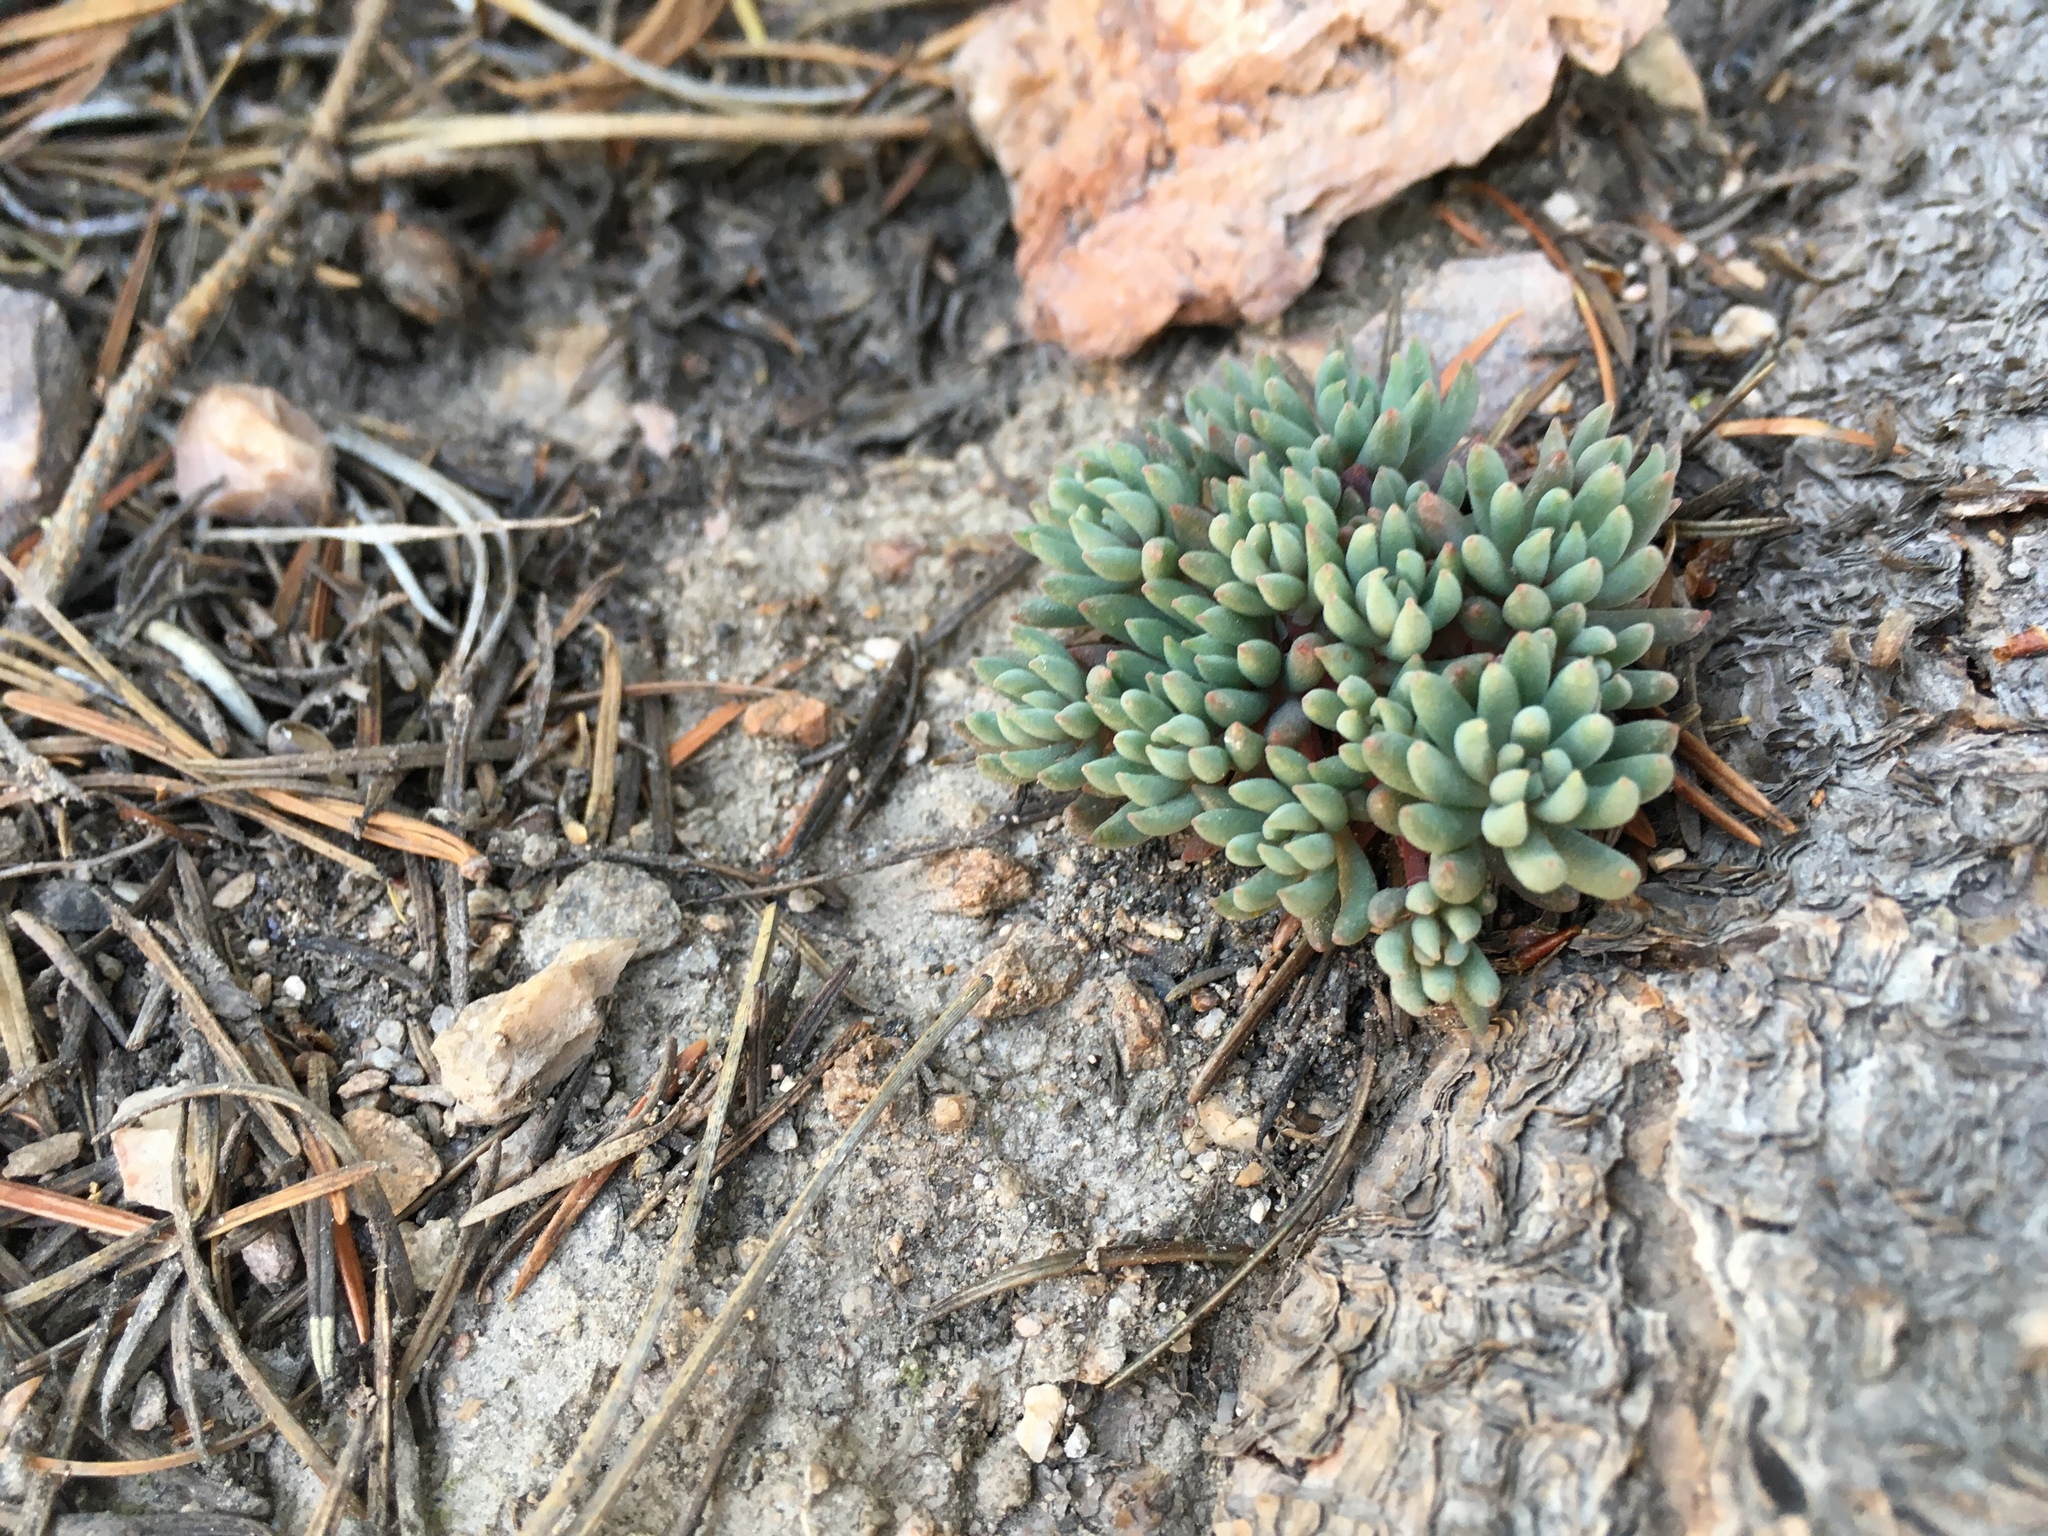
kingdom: Plantae
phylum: Tracheophyta
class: Magnoliopsida
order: Saxifragales
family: Crassulaceae
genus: Sedum
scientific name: Sedum lanceolatum
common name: Common stonecrop
